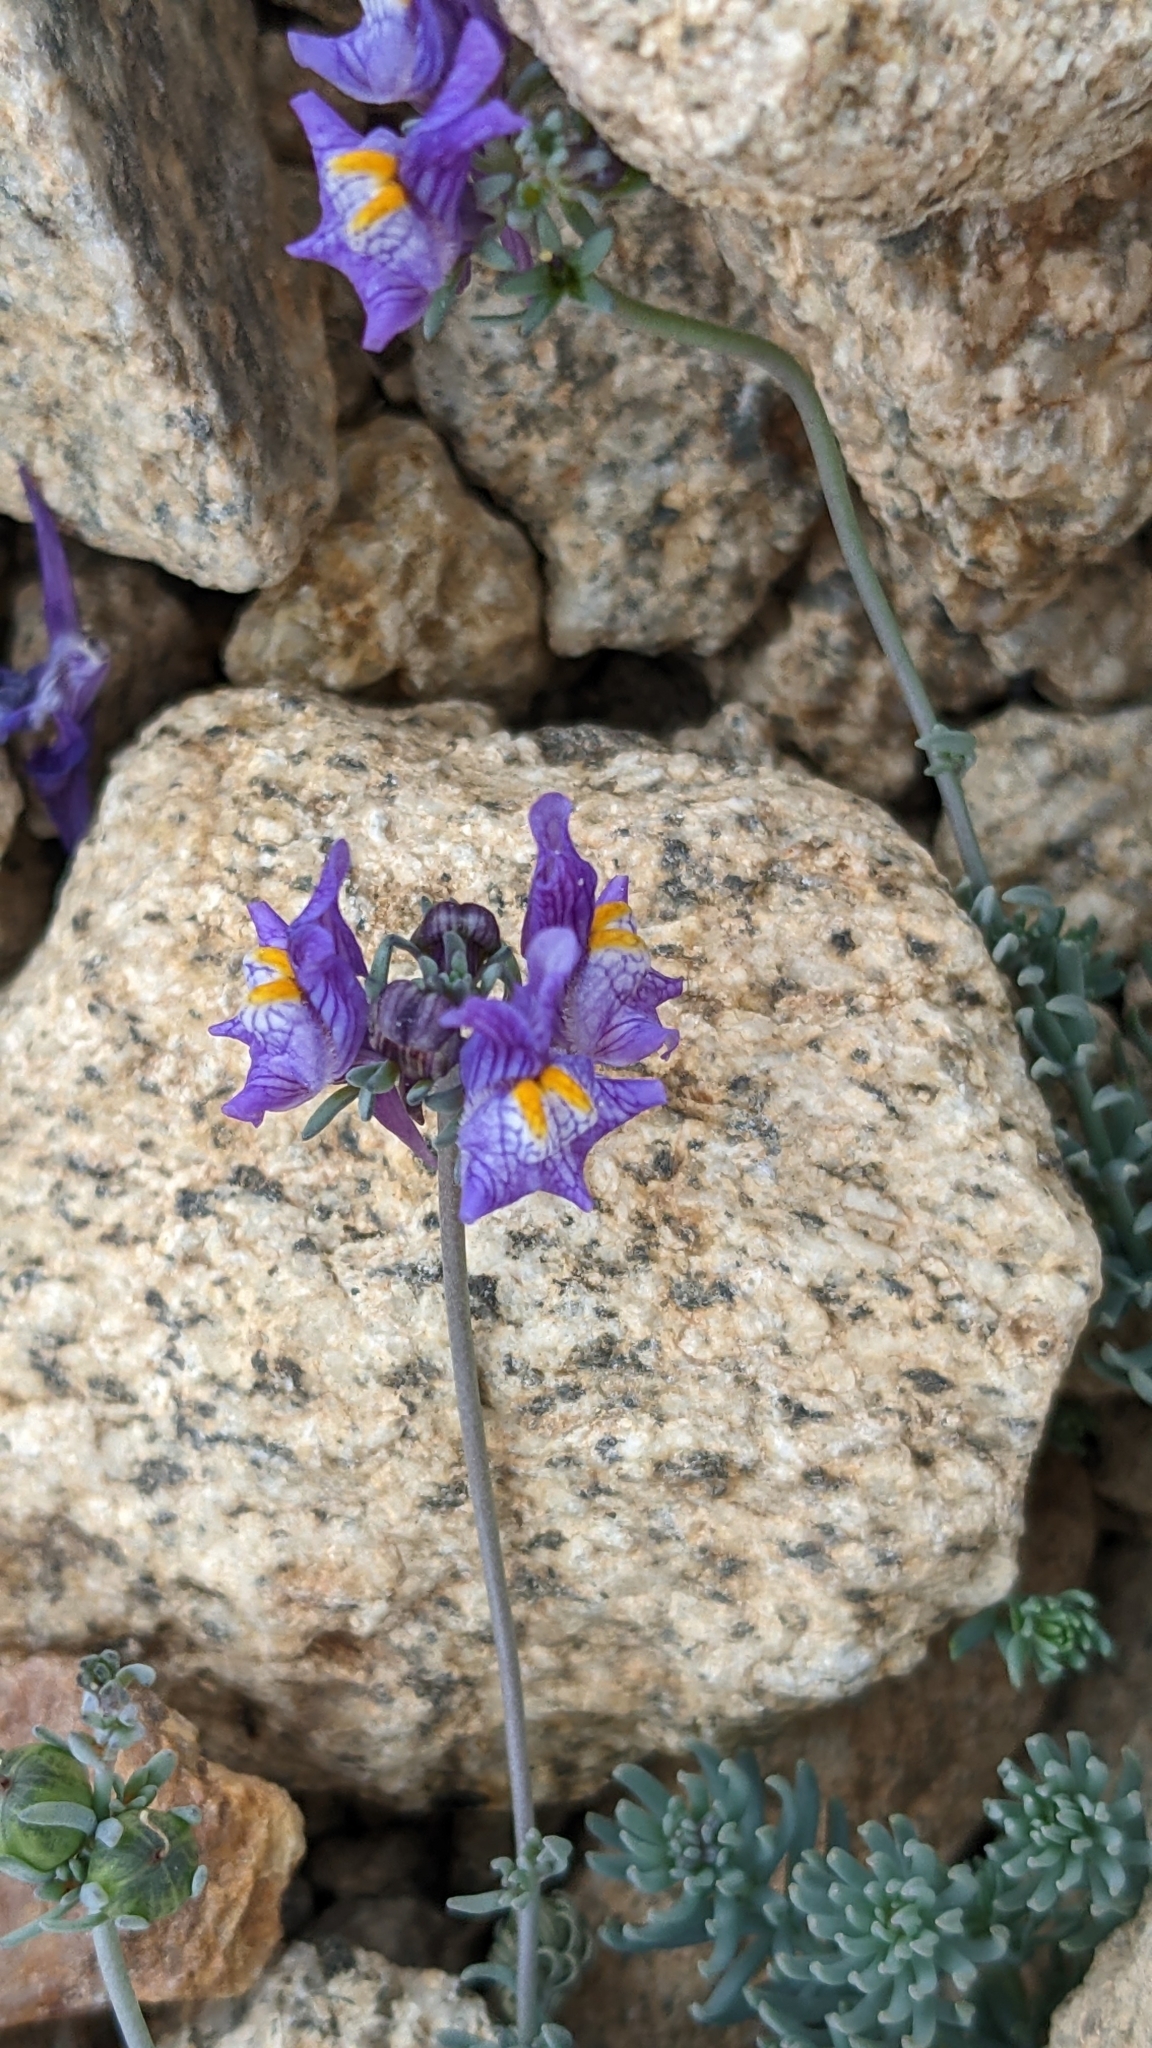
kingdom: Plantae
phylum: Tracheophyta
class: Magnoliopsida
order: Lamiales
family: Plantaginaceae
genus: Linaria
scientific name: Linaria alpina
